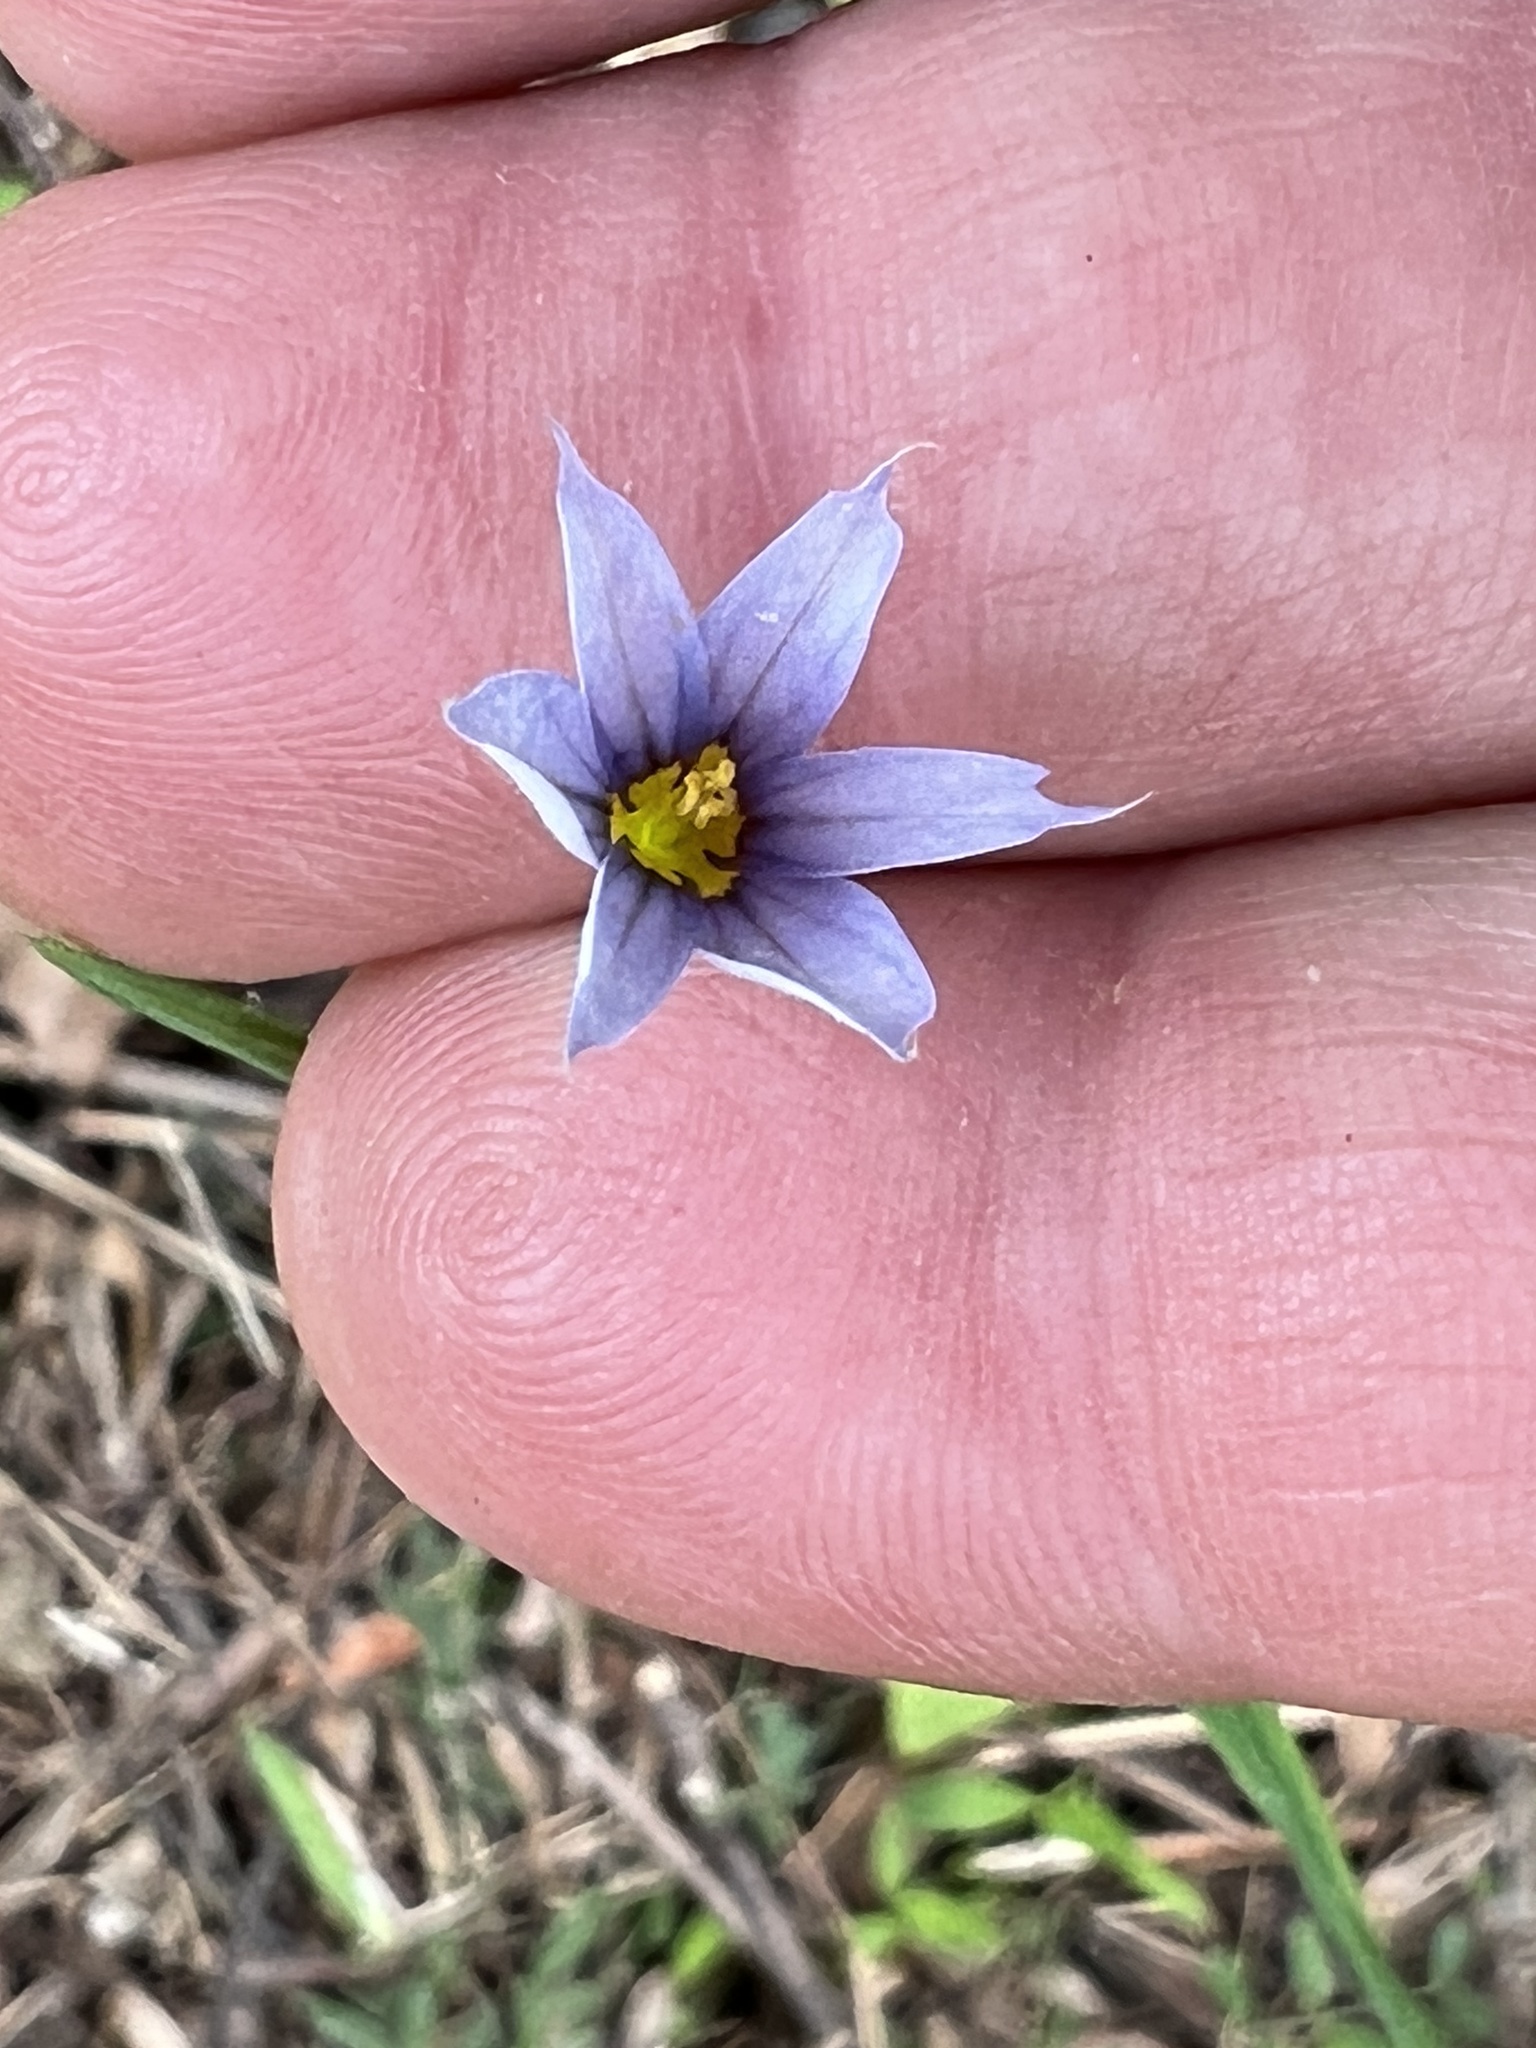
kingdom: Plantae
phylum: Tracheophyta
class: Liliopsida
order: Asparagales
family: Iridaceae
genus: Sisyrinchium
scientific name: Sisyrinchium angustifolium
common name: Narrow-leaf blue-eyed-grass
